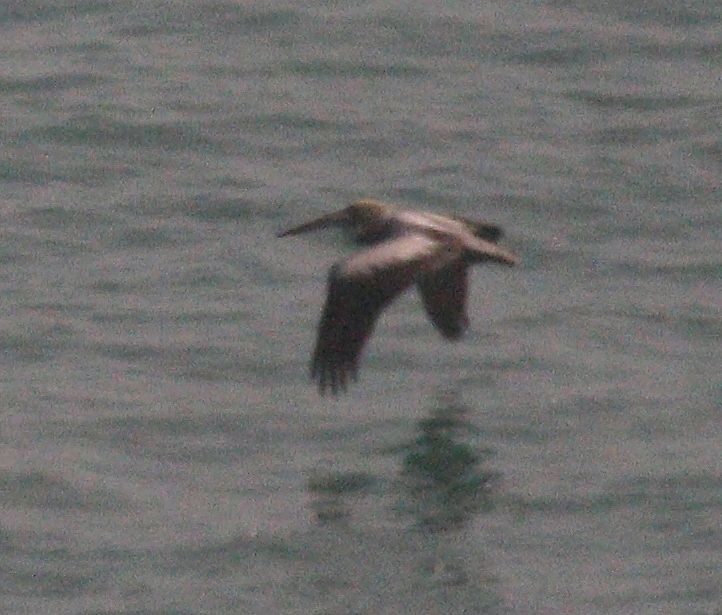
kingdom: Animalia
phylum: Chordata
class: Aves
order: Pelecaniformes
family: Pelecanidae
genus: Pelecanus
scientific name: Pelecanus thagus
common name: Peruvian pelican
